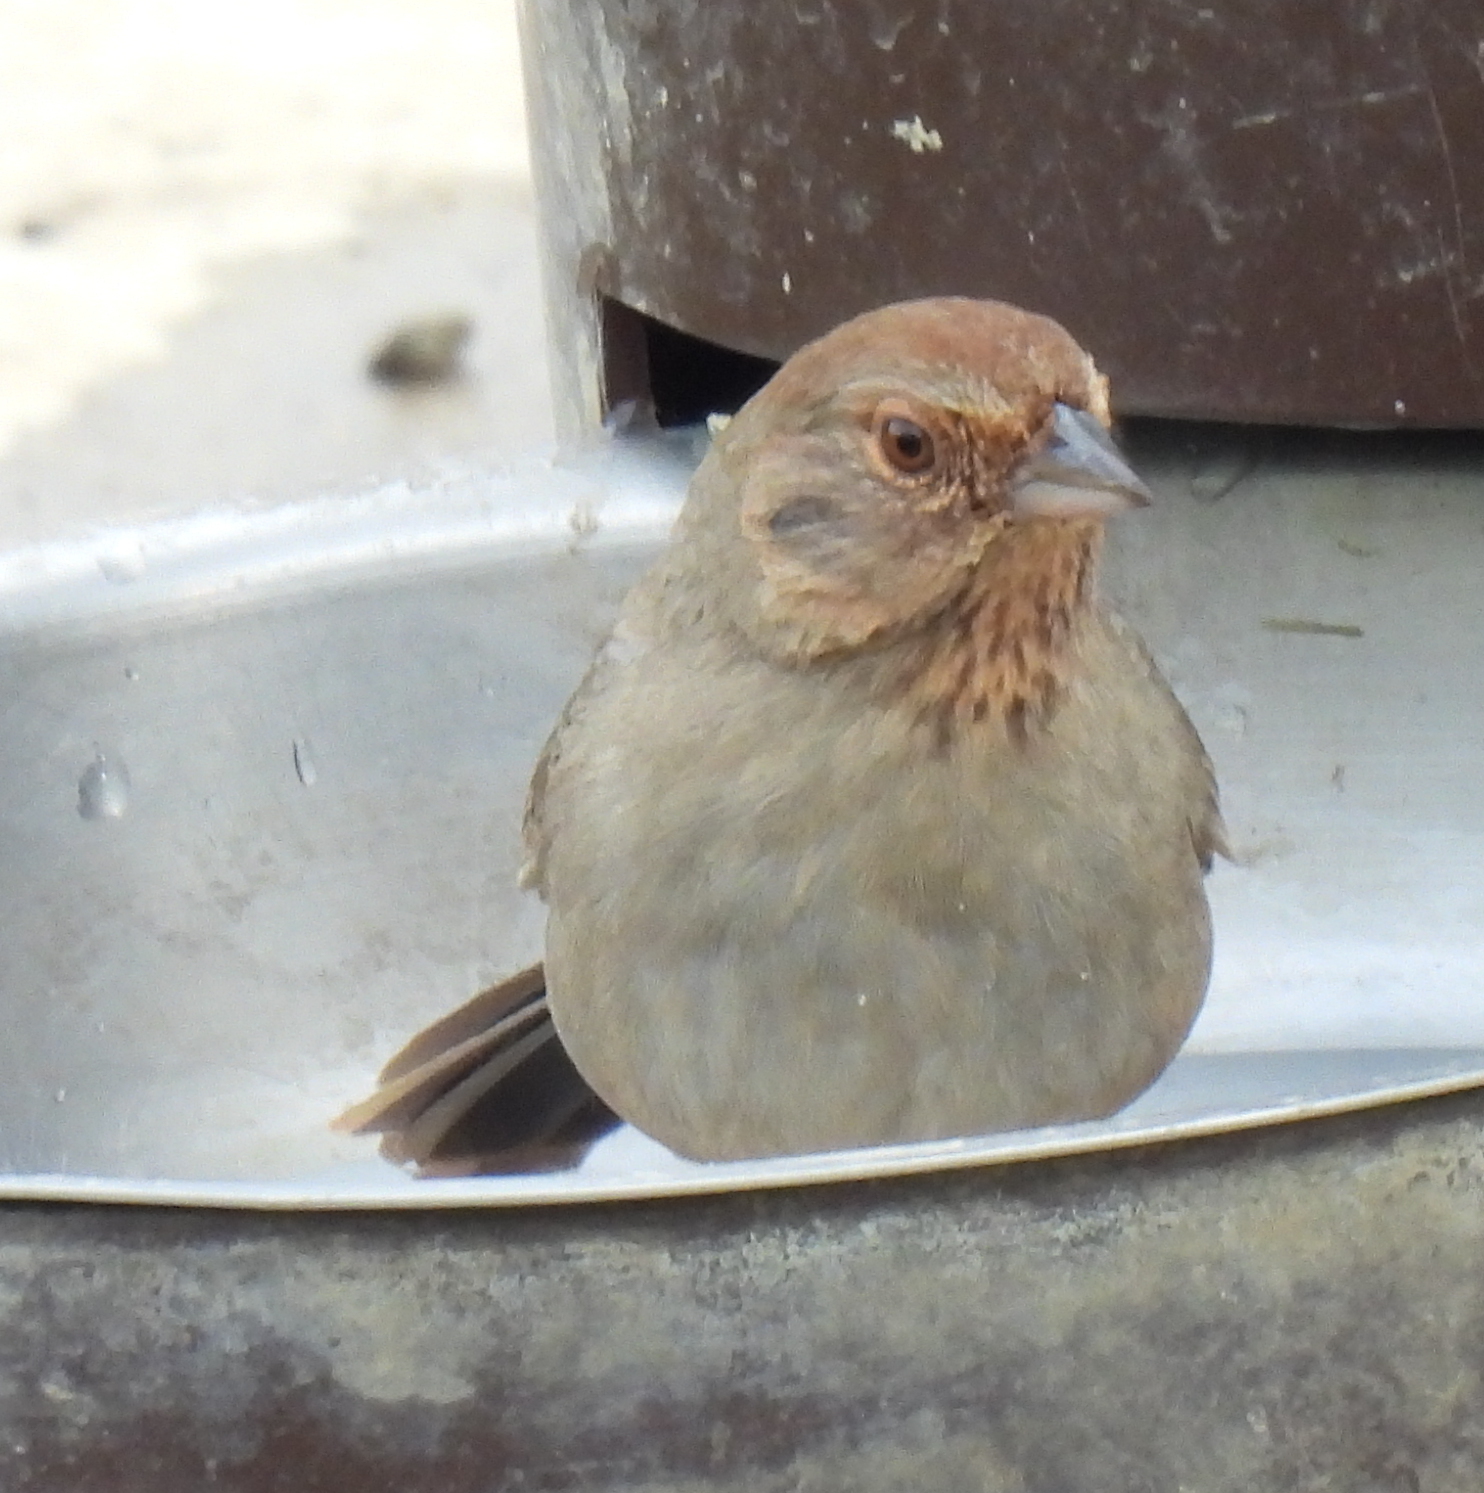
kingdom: Animalia
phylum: Chordata
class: Aves
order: Passeriformes
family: Passerellidae
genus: Melozone
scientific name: Melozone crissalis
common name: California towhee
